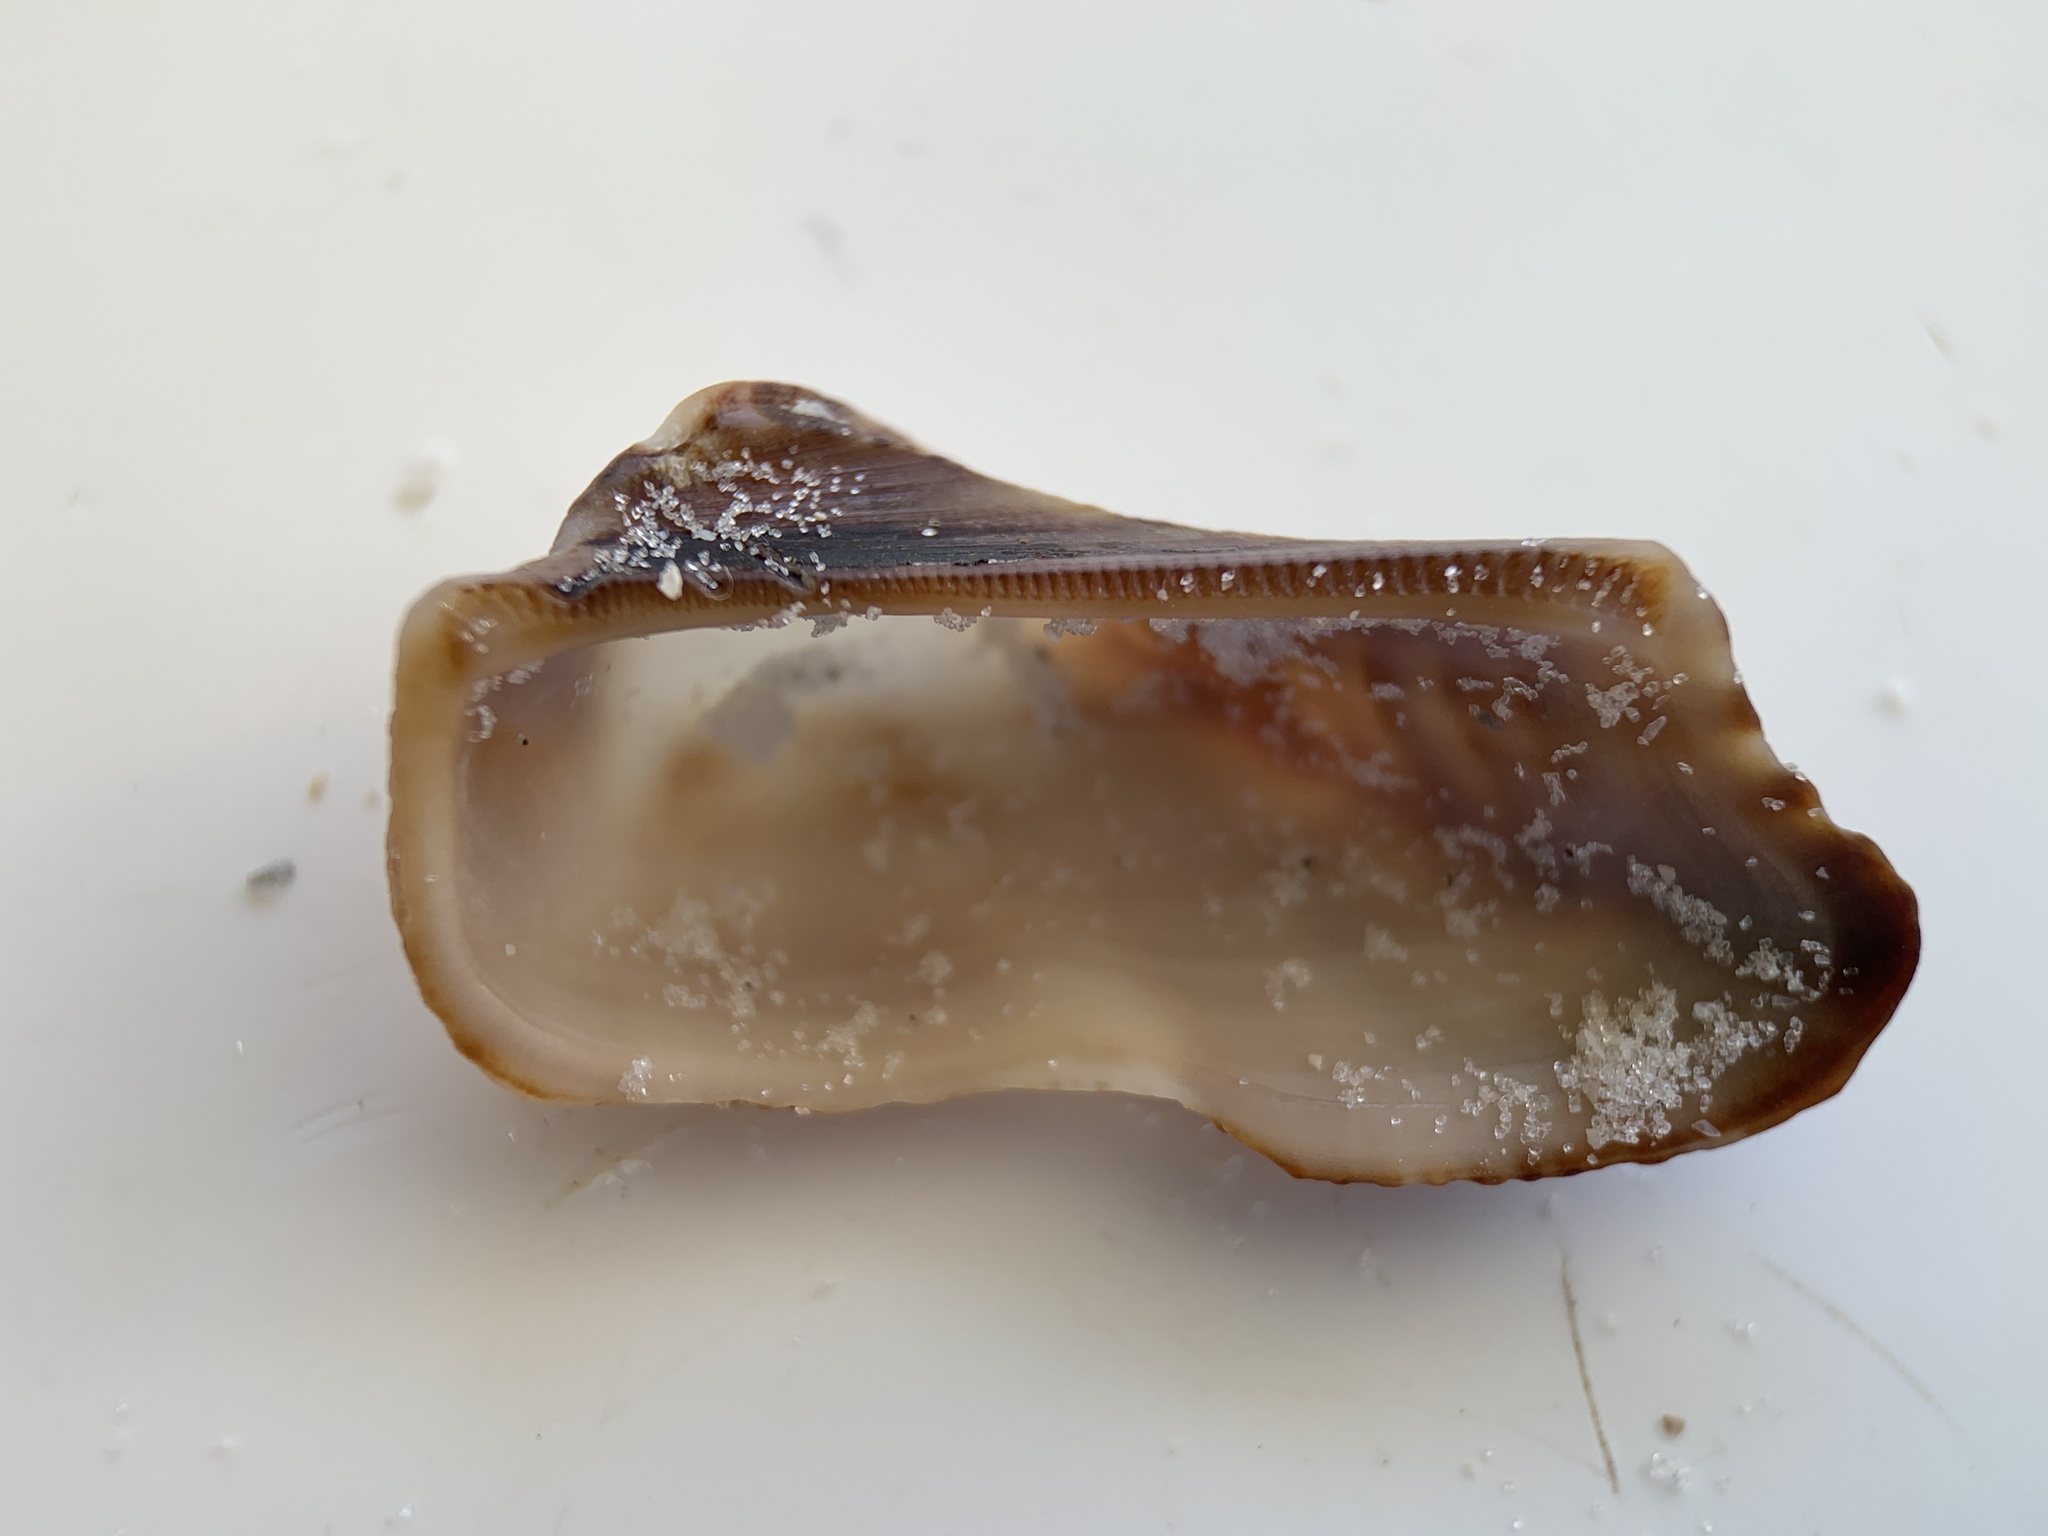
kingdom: Animalia
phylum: Mollusca
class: Bivalvia
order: Arcida
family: Arcidae
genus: Lamarcka
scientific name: Lamarcka imbricata
